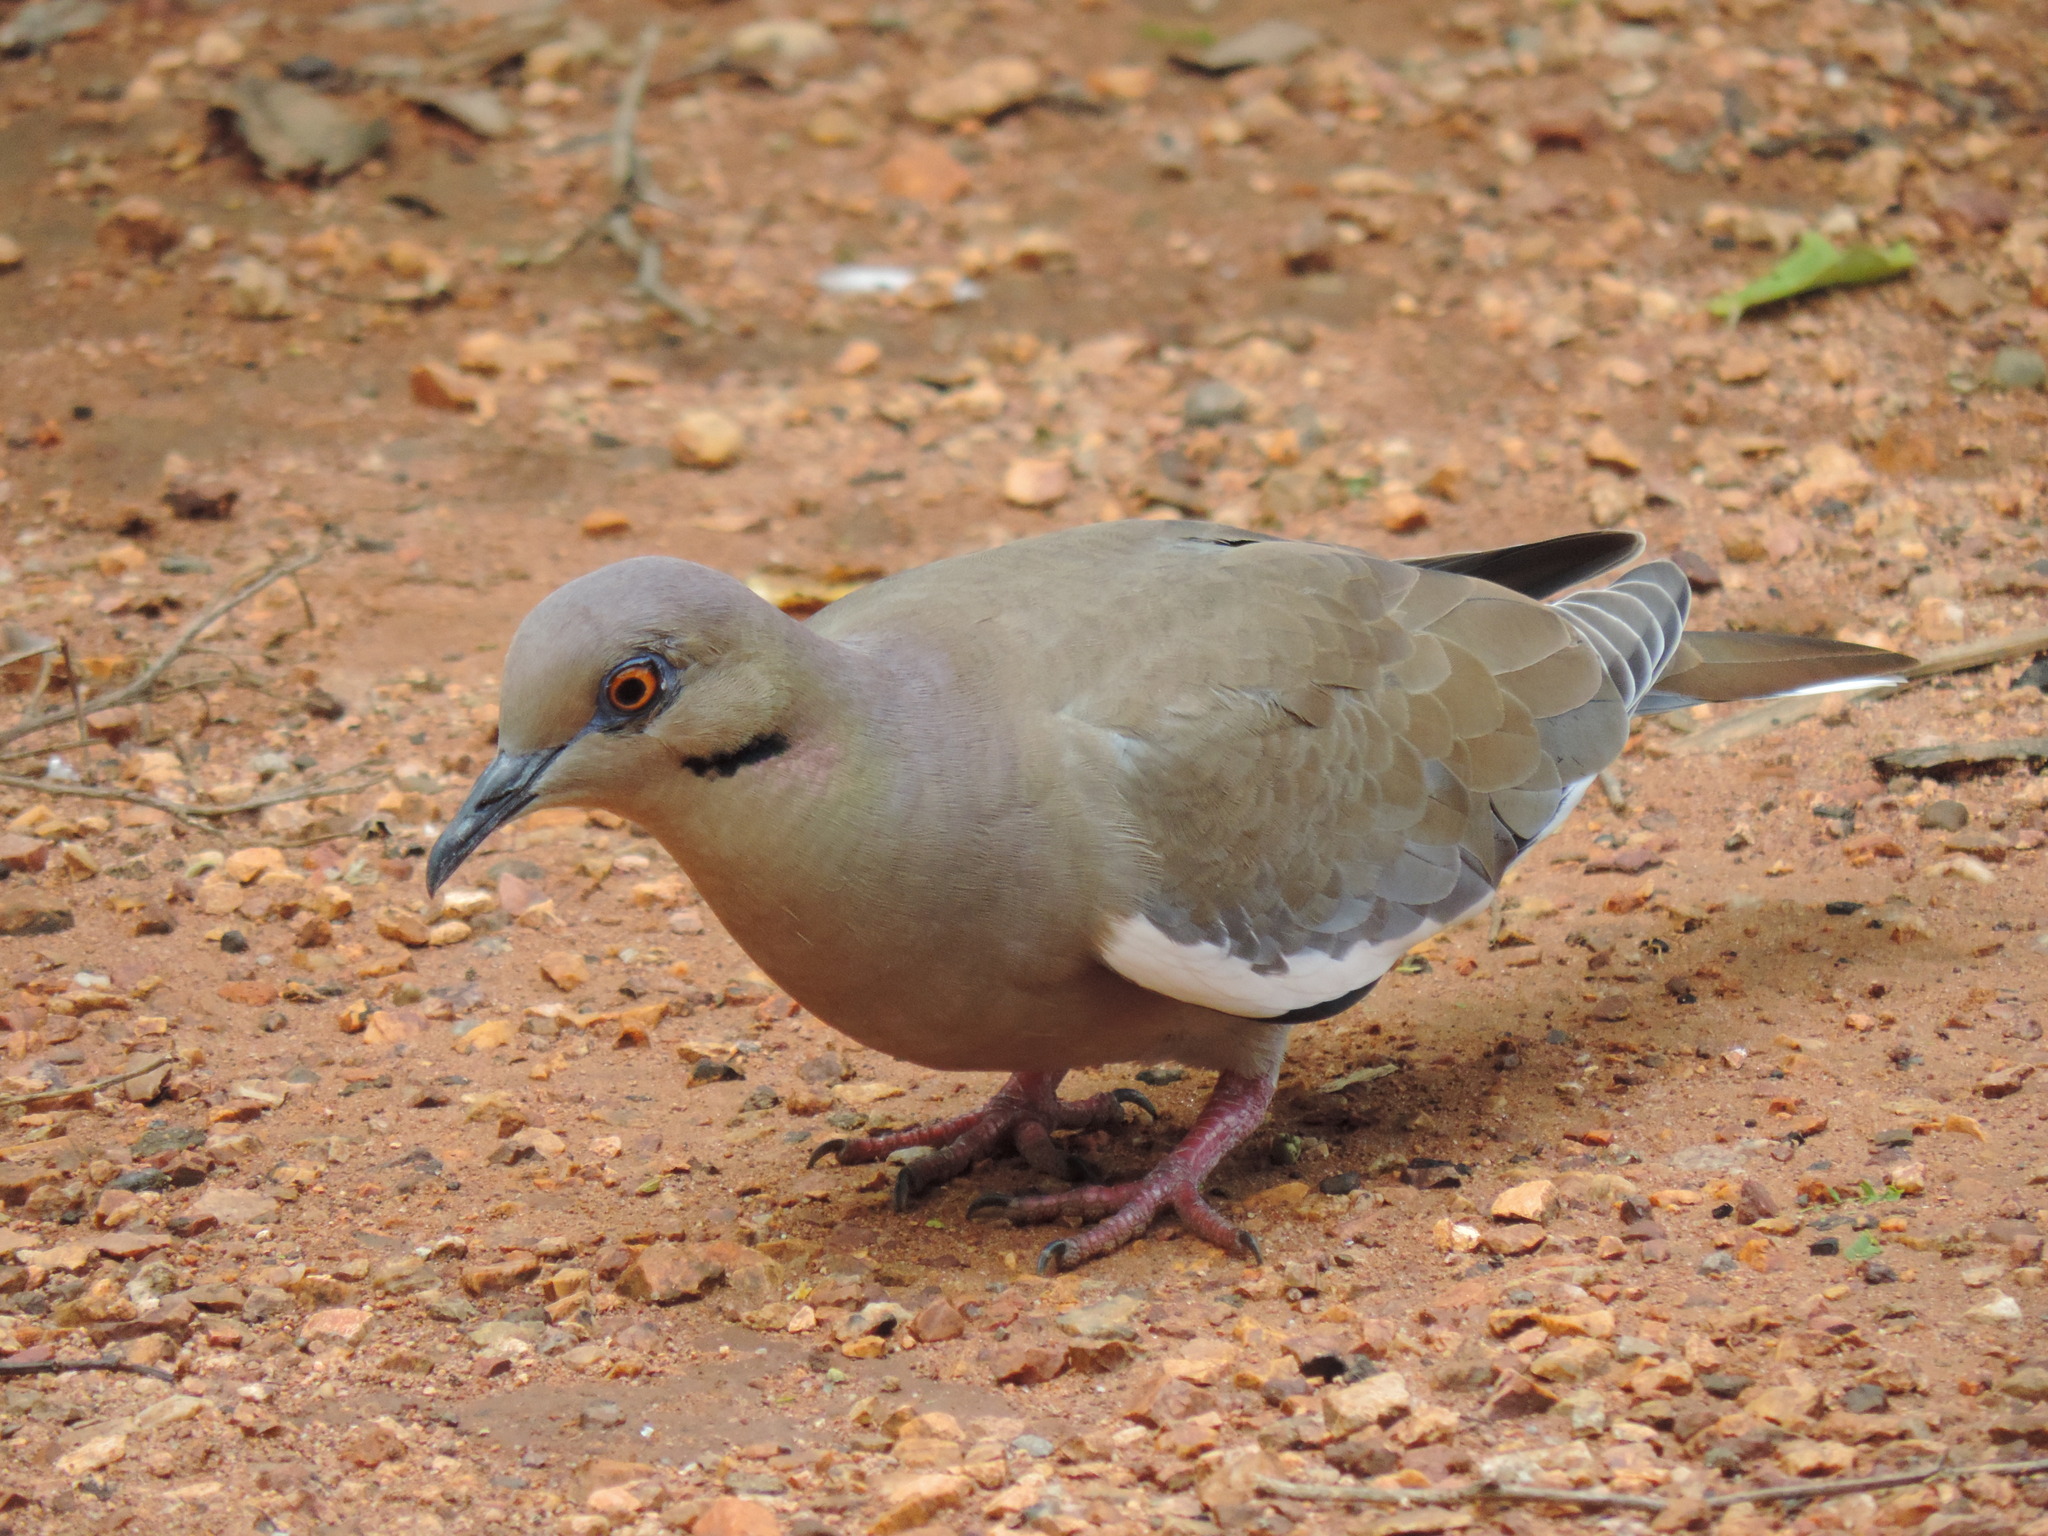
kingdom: Animalia
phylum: Chordata
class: Aves
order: Columbiformes
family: Columbidae
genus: Zenaida
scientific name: Zenaida asiatica
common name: White-winged dove
